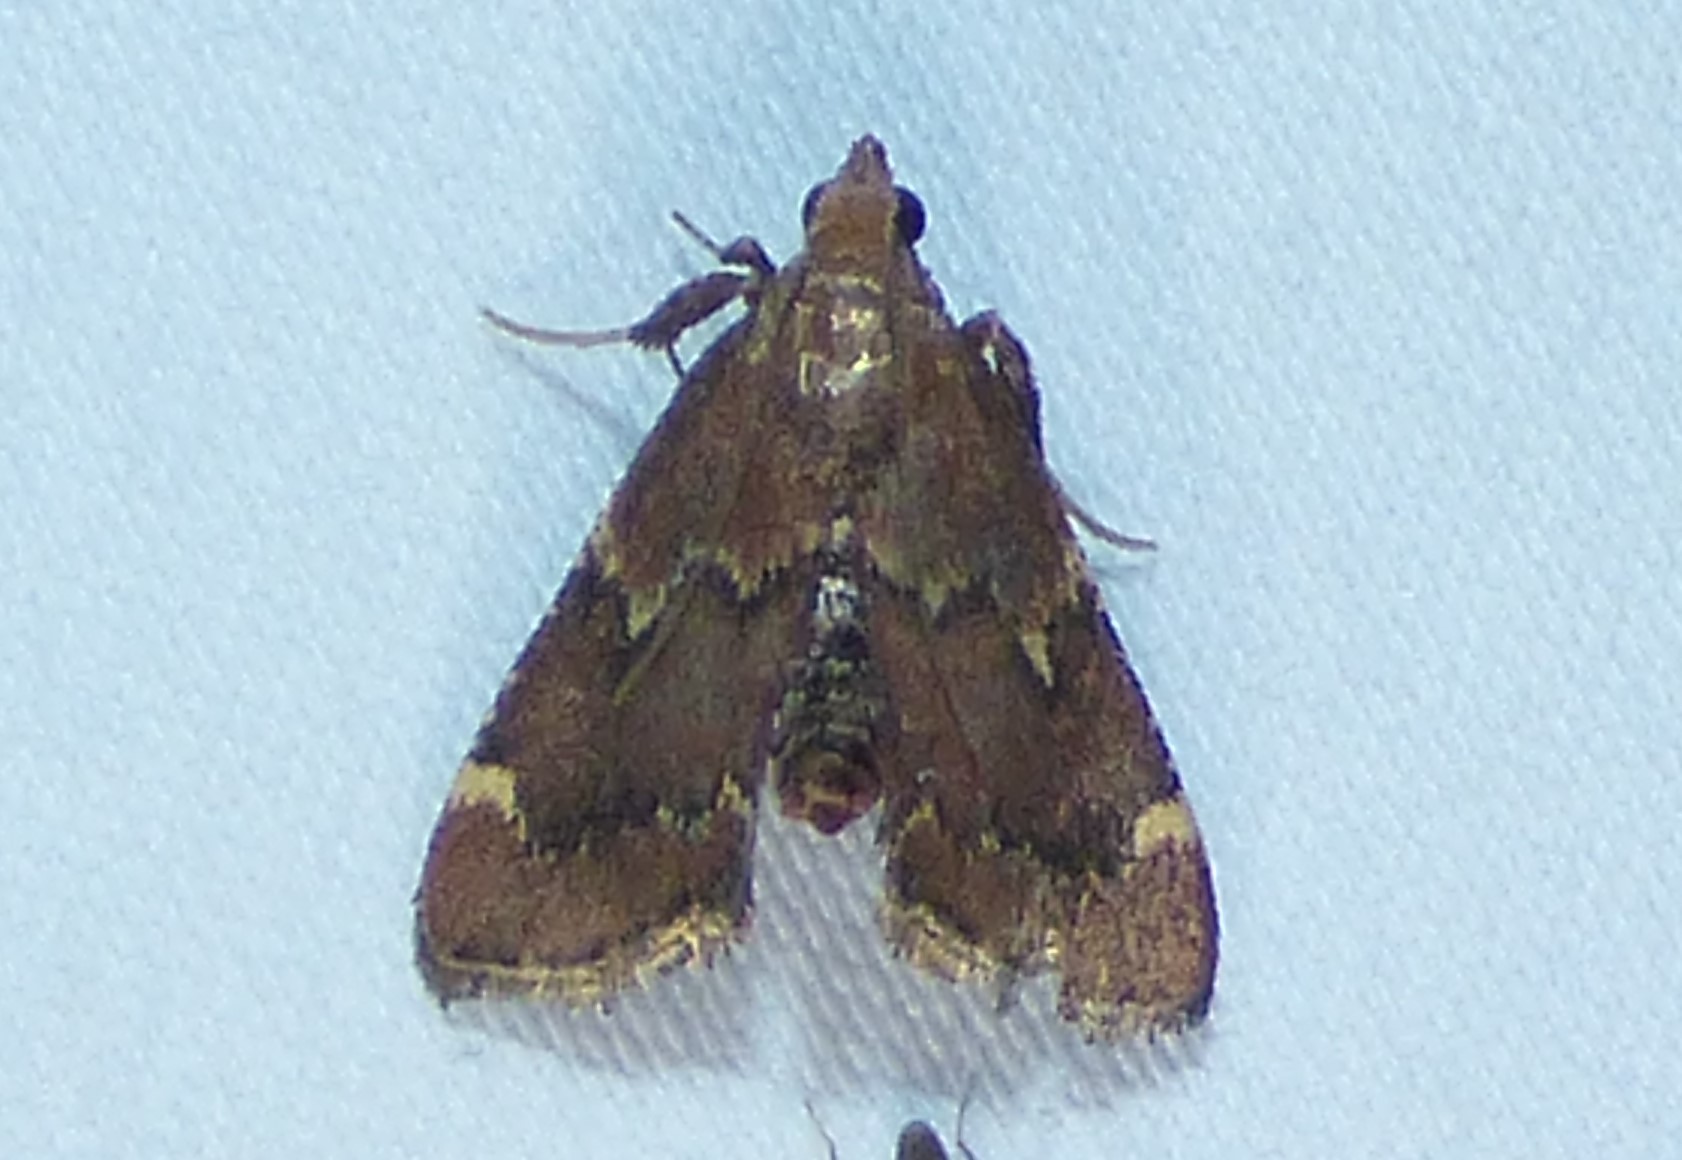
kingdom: Animalia
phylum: Arthropoda
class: Insecta
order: Lepidoptera
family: Pyralidae
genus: Hypsopygia
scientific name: Hypsopygia intermedialis
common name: Red-shawled moth
